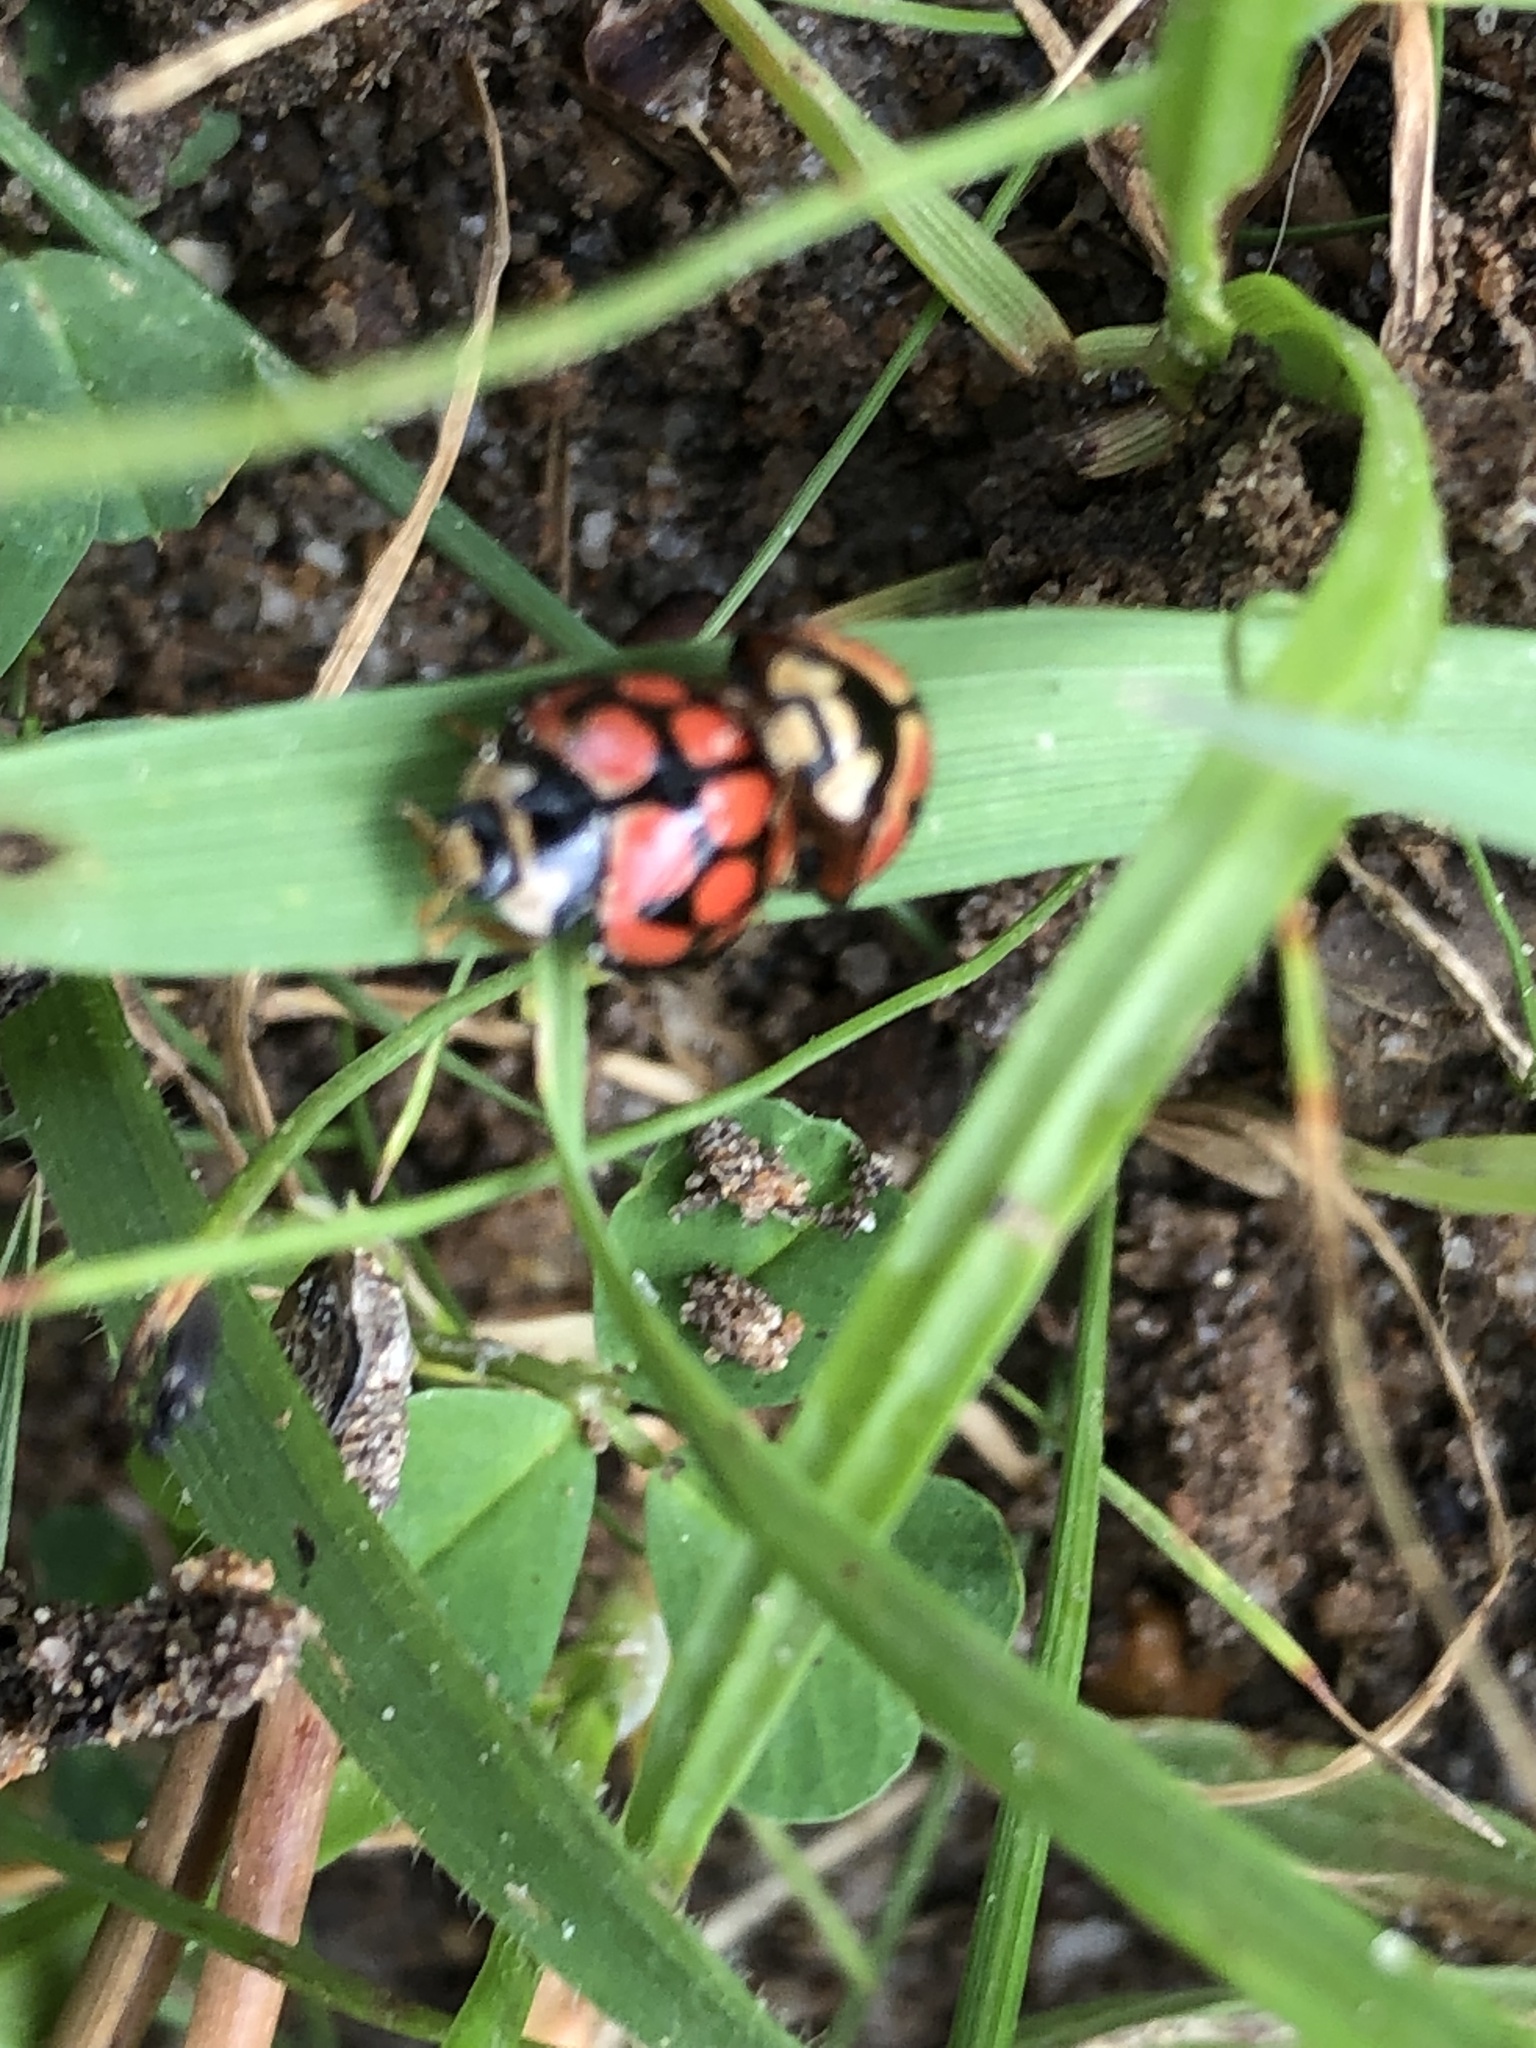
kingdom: Animalia
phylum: Arthropoda
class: Insecta
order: Coleoptera
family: Coccinellidae
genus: Cheilomenes
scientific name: Cheilomenes lunata
